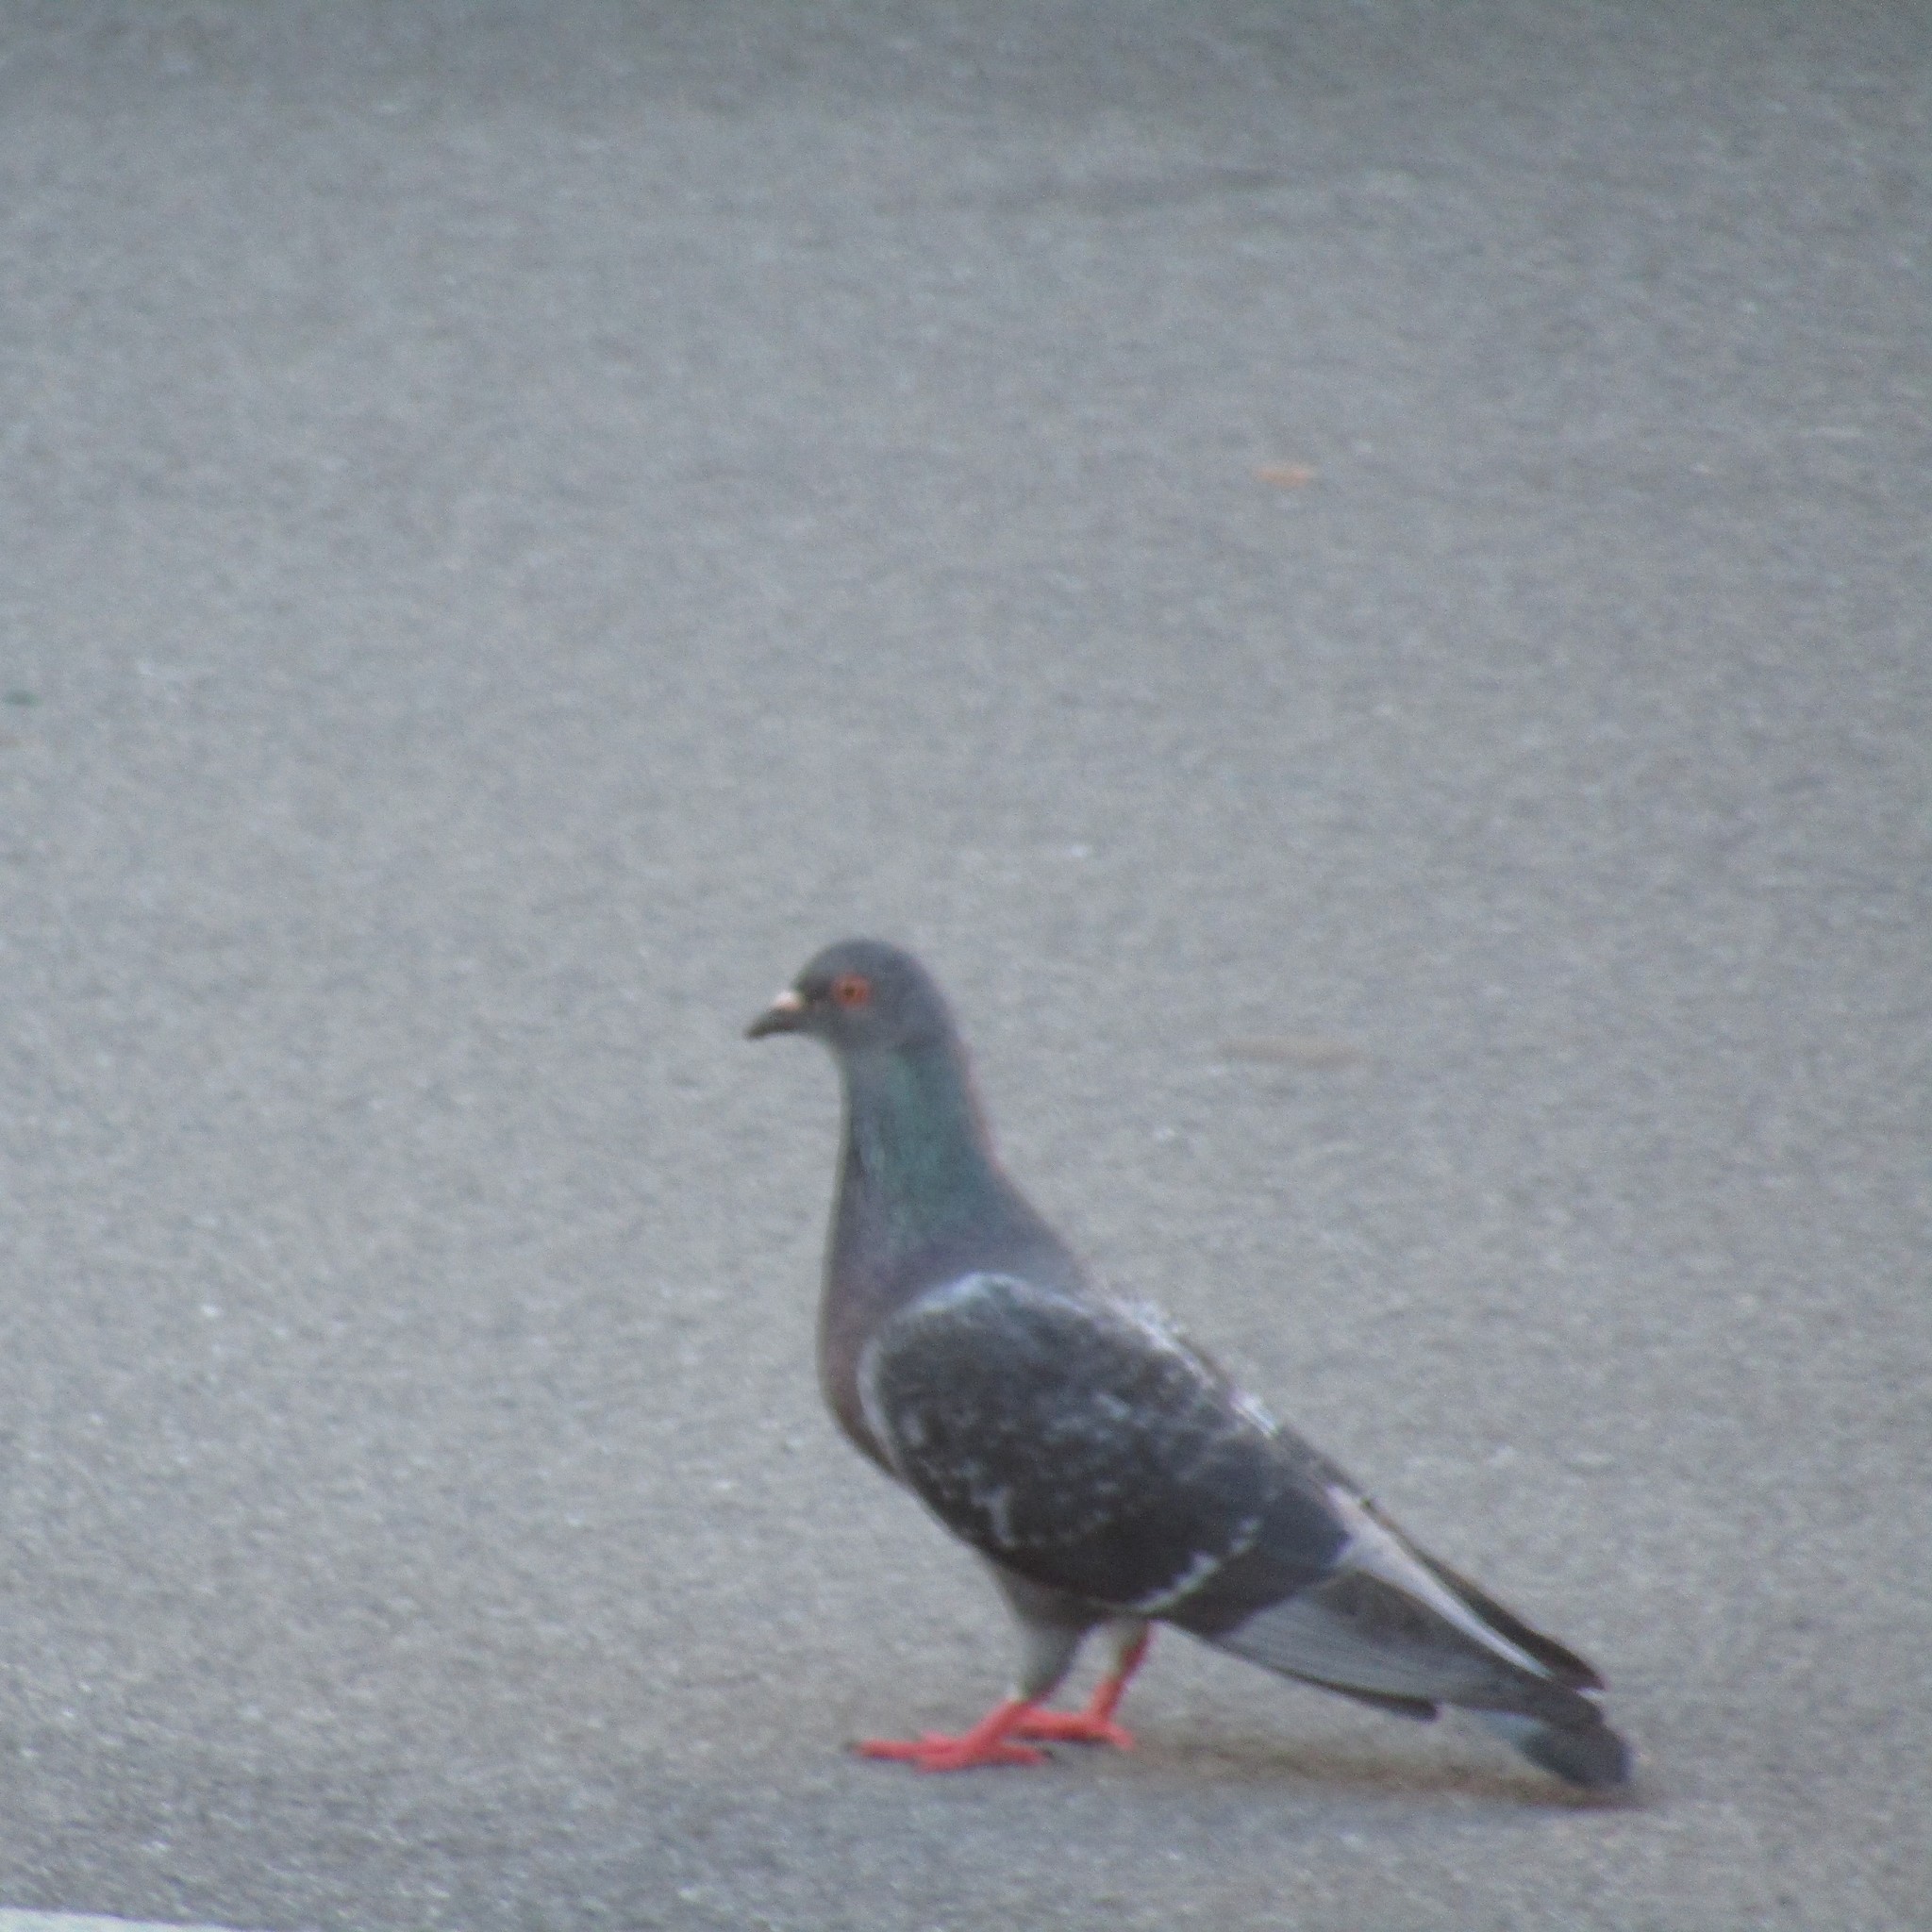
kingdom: Animalia
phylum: Chordata
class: Aves
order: Columbiformes
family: Columbidae
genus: Columba
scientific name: Columba livia
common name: Rock pigeon
